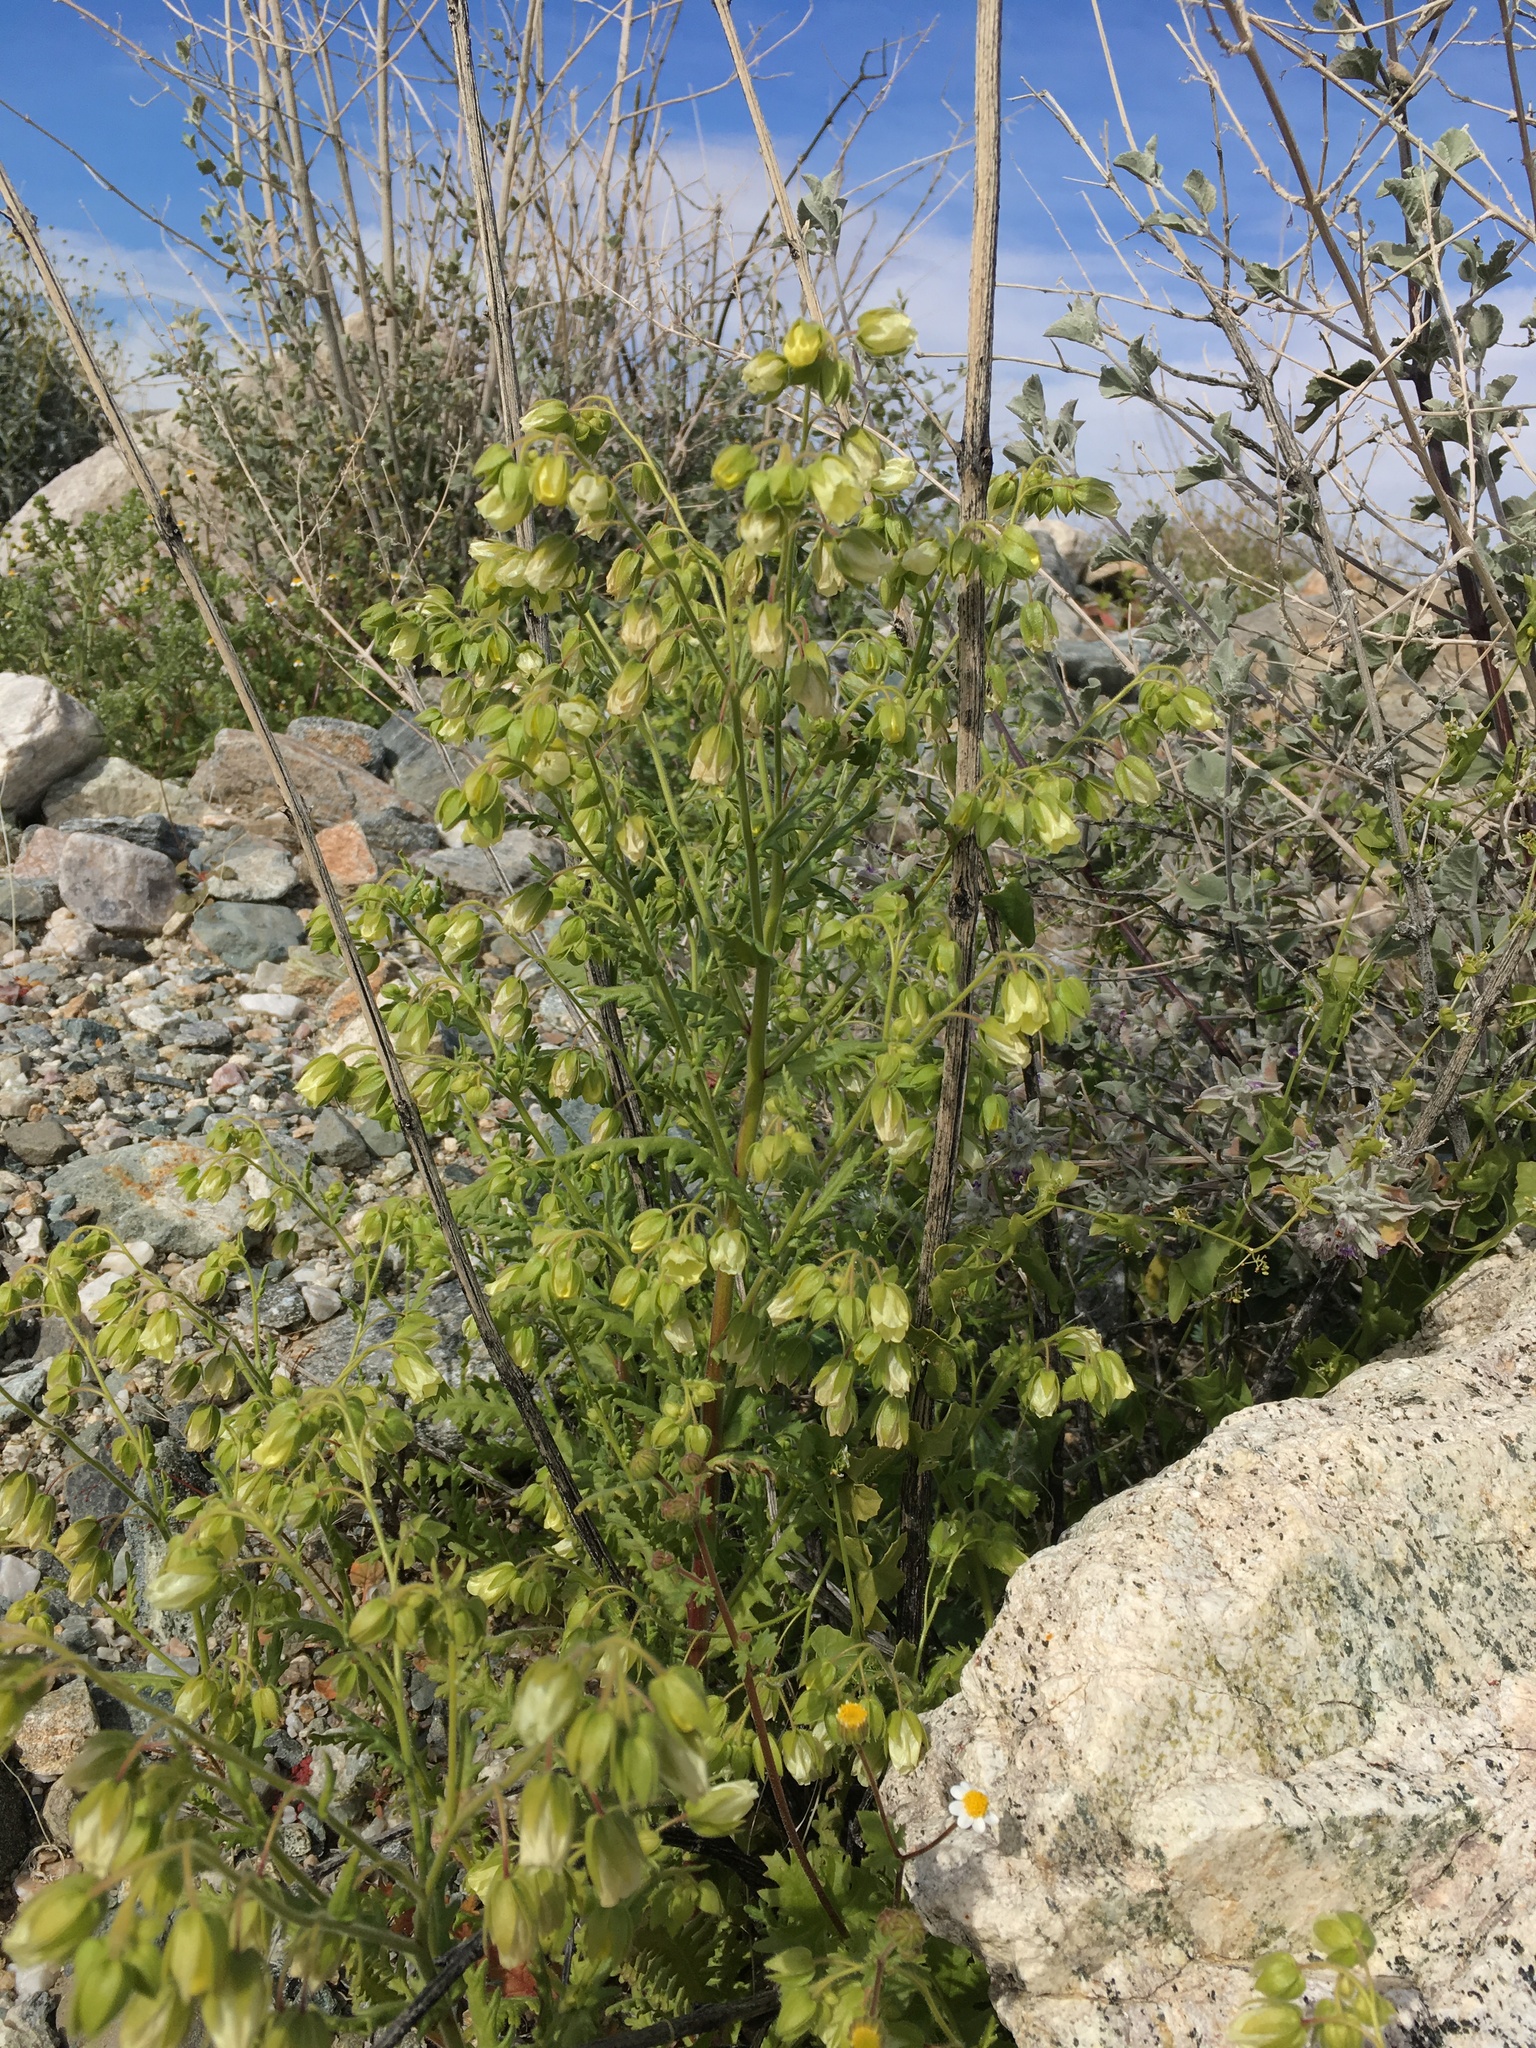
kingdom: Plantae
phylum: Tracheophyta
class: Magnoliopsida
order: Boraginales
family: Hydrophyllaceae
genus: Emmenanthe
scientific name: Emmenanthe penduliflora
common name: Whispering-bells
